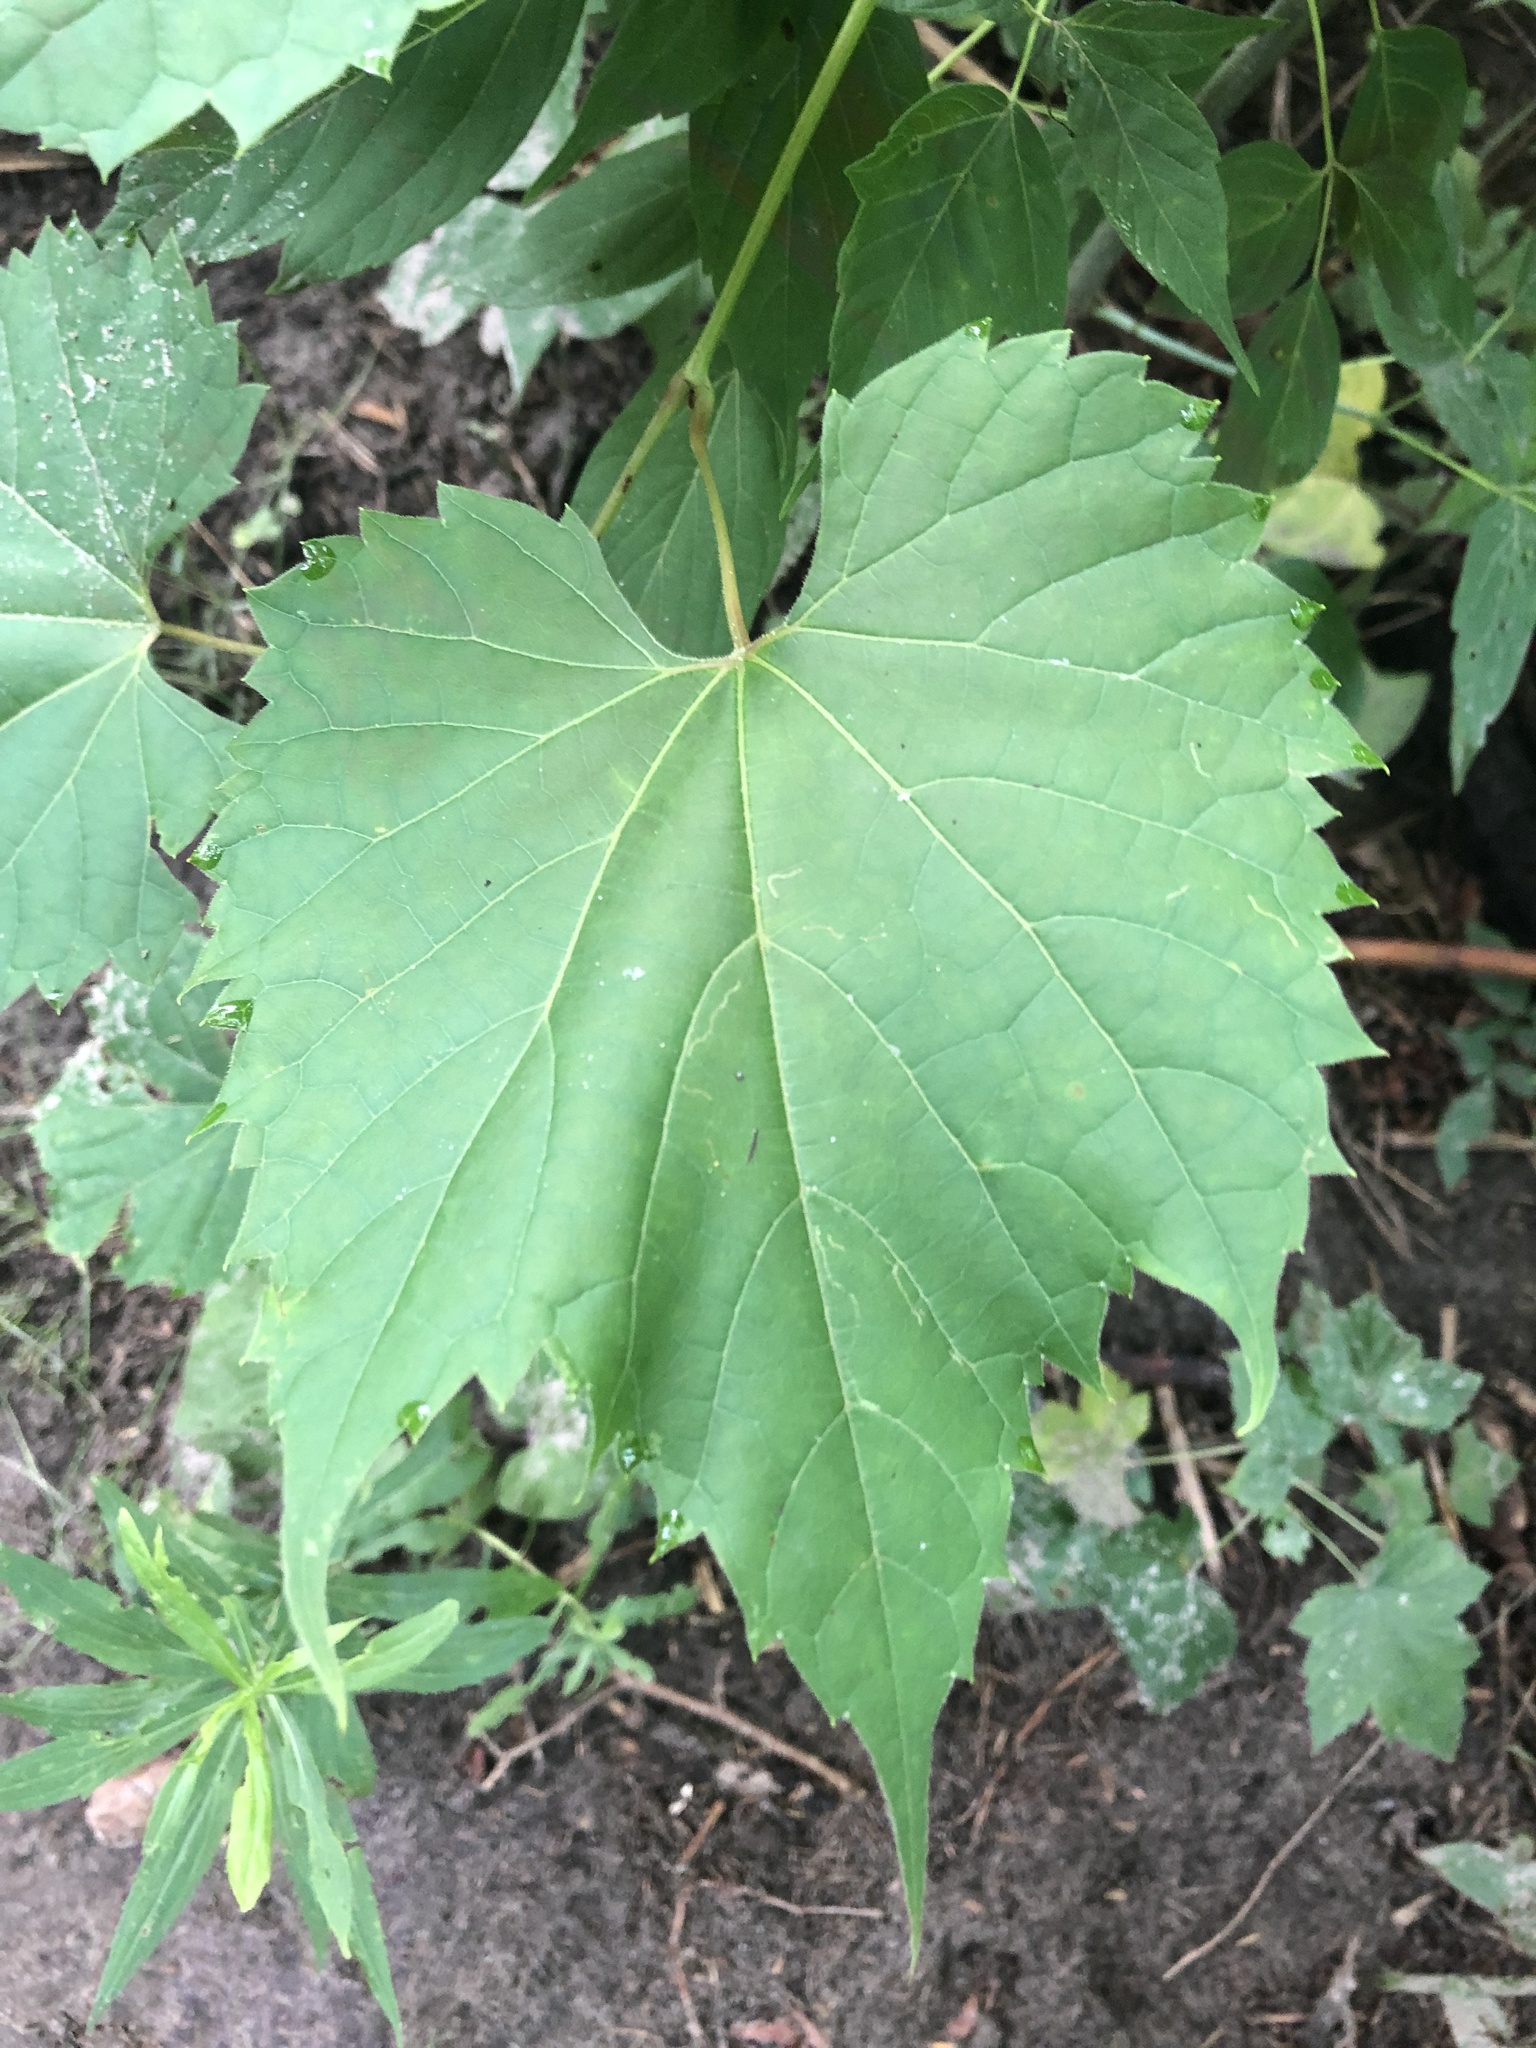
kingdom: Plantae
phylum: Tracheophyta
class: Magnoliopsida
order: Vitales
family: Vitaceae
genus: Vitis
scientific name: Vitis riparia
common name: Frost grape
